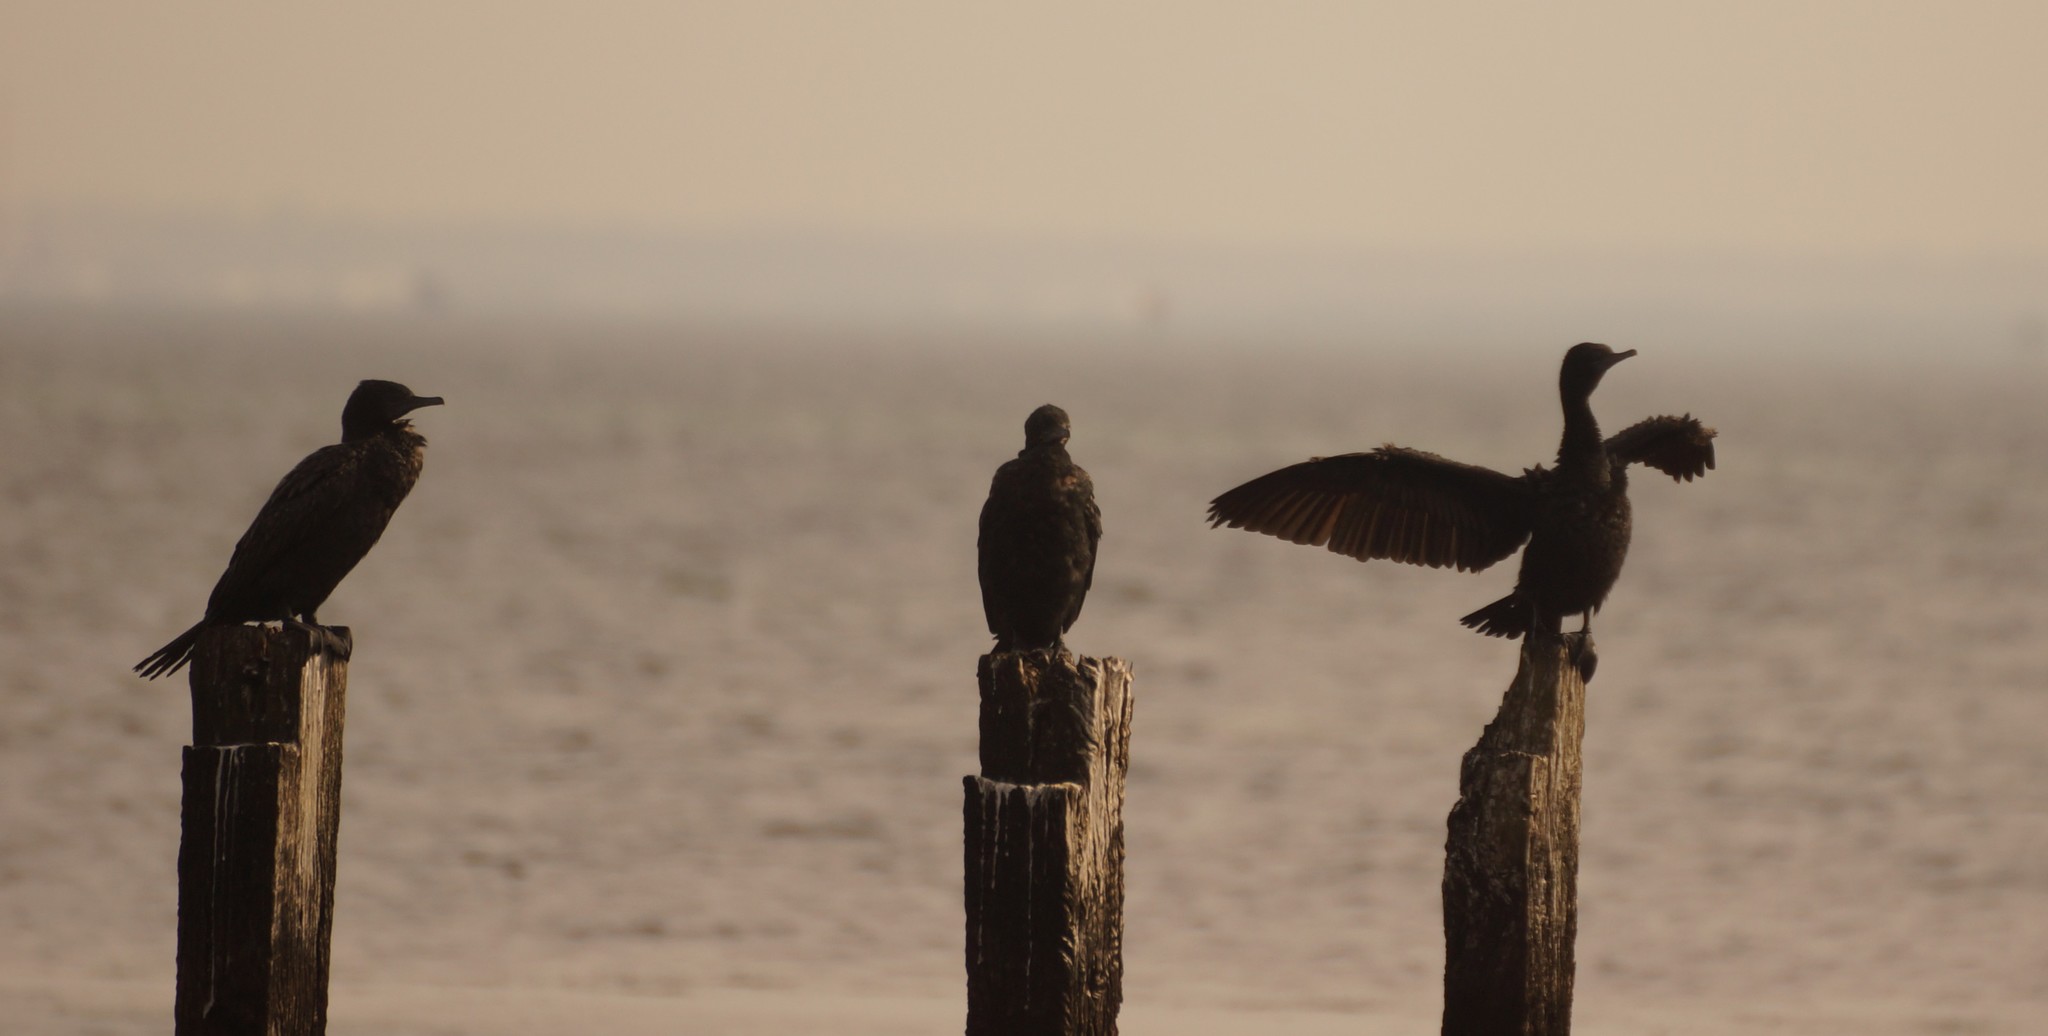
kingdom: Animalia
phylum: Chordata
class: Aves
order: Suliformes
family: Phalacrocoracidae
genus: Phalacrocorax
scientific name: Phalacrocorax sulcirostris
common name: Little black cormorant
